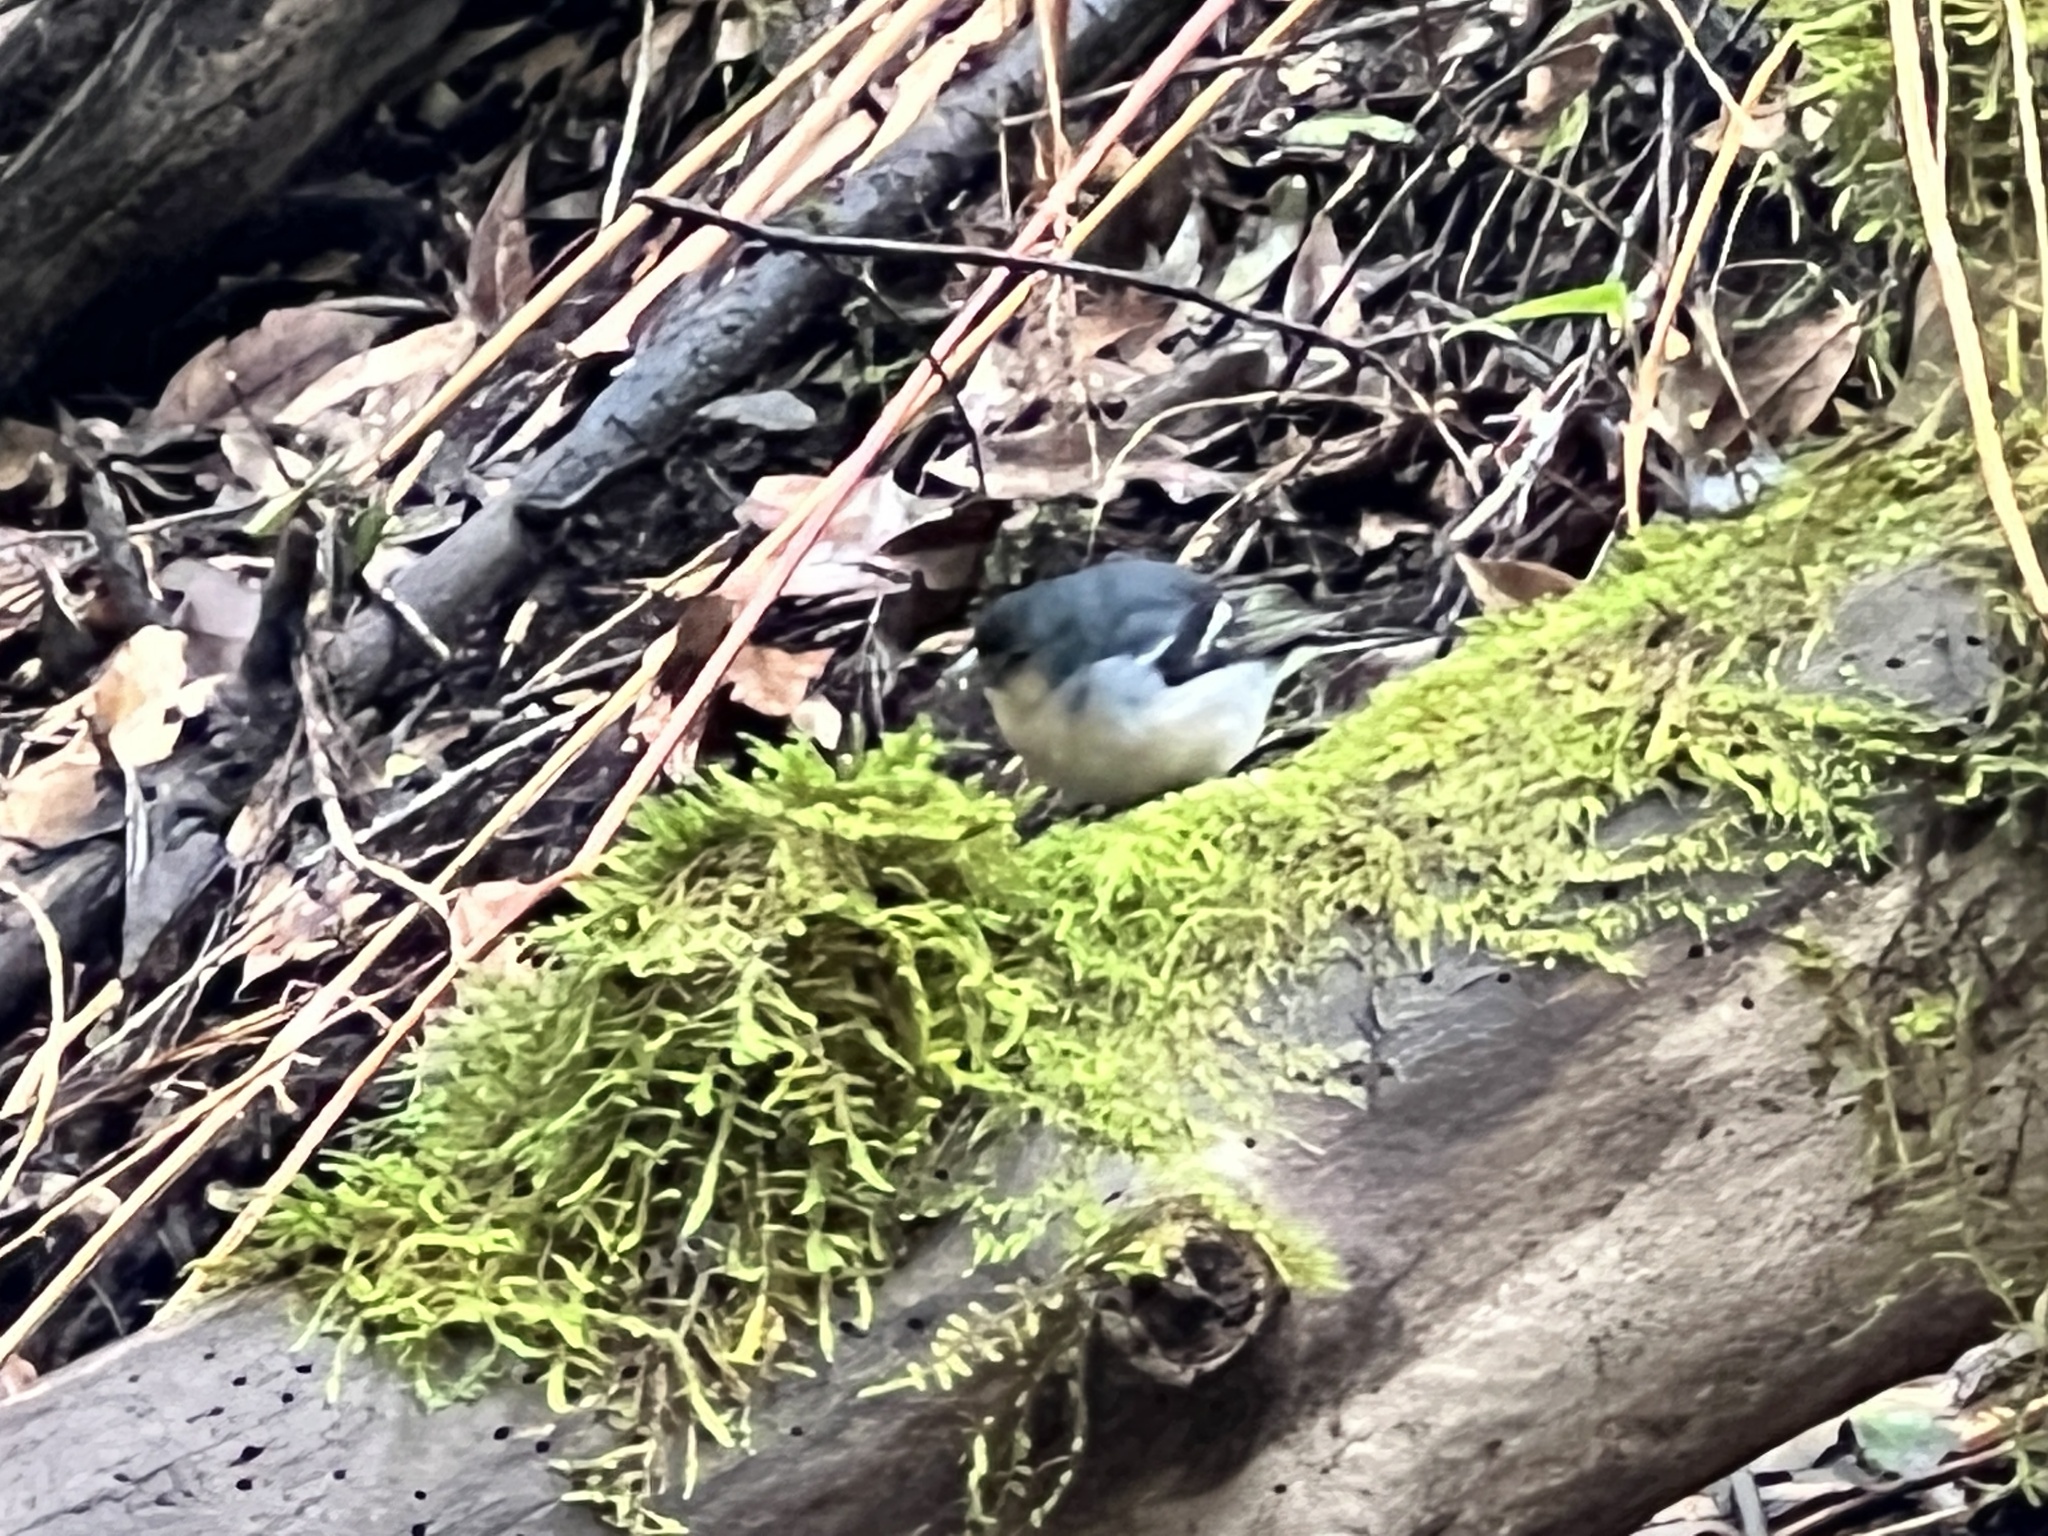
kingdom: Animalia
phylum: Chordata
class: Aves
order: Passeriformes
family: Fringillidae
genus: Fringilla
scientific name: Fringilla canariensis
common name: Canary islands chaffinch
